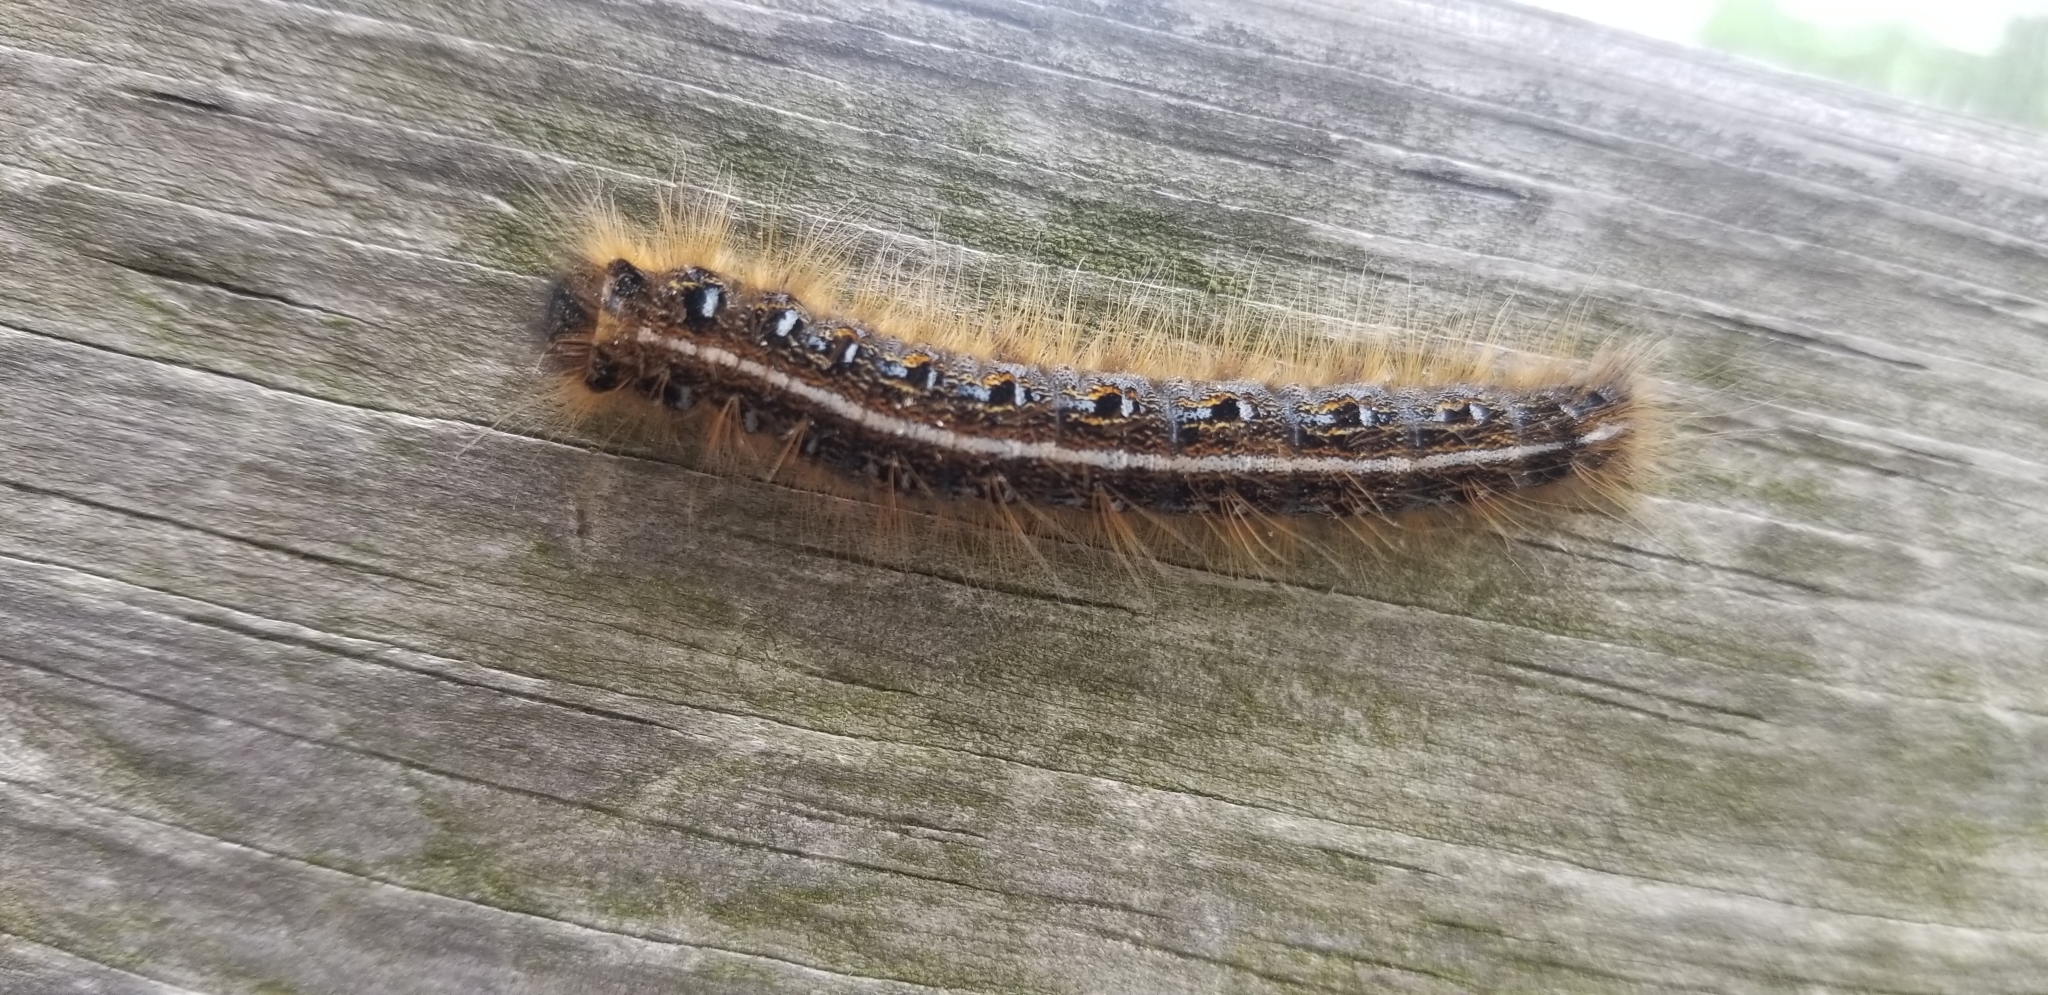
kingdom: Animalia
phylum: Arthropoda
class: Insecta
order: Lepidoptera
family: Lasiocampidae
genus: Malacosoma
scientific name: Malacosoma americana
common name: Eastern tent caterpillar moth
